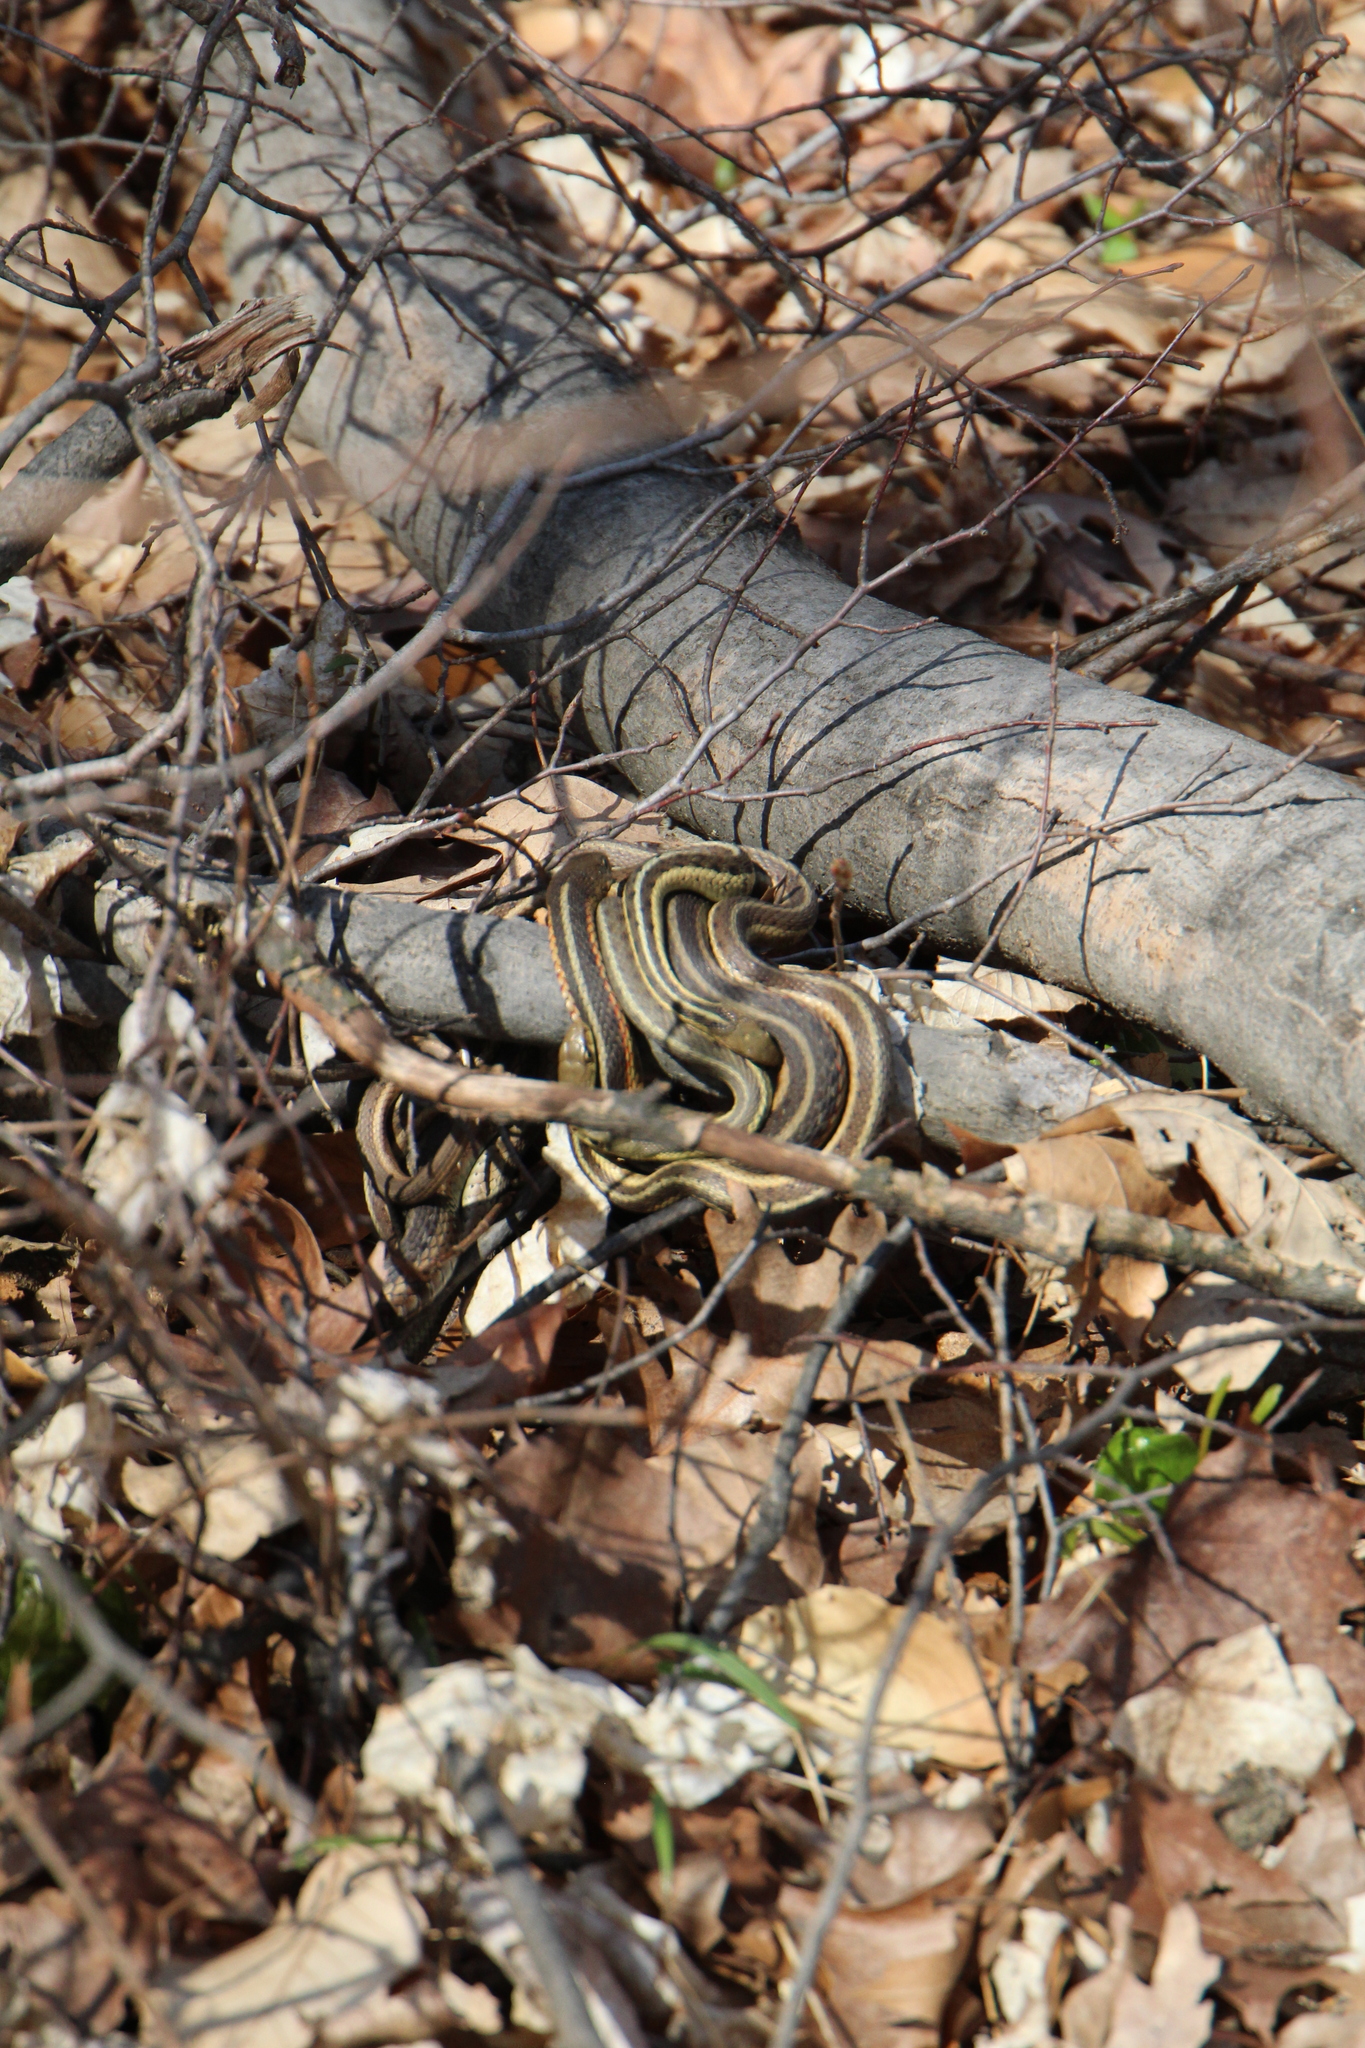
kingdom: Animalia
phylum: Chordata
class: Squamata
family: Colubridae
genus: Thamnophis
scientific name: Thamnophis sirtalis
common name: Common garter snake
